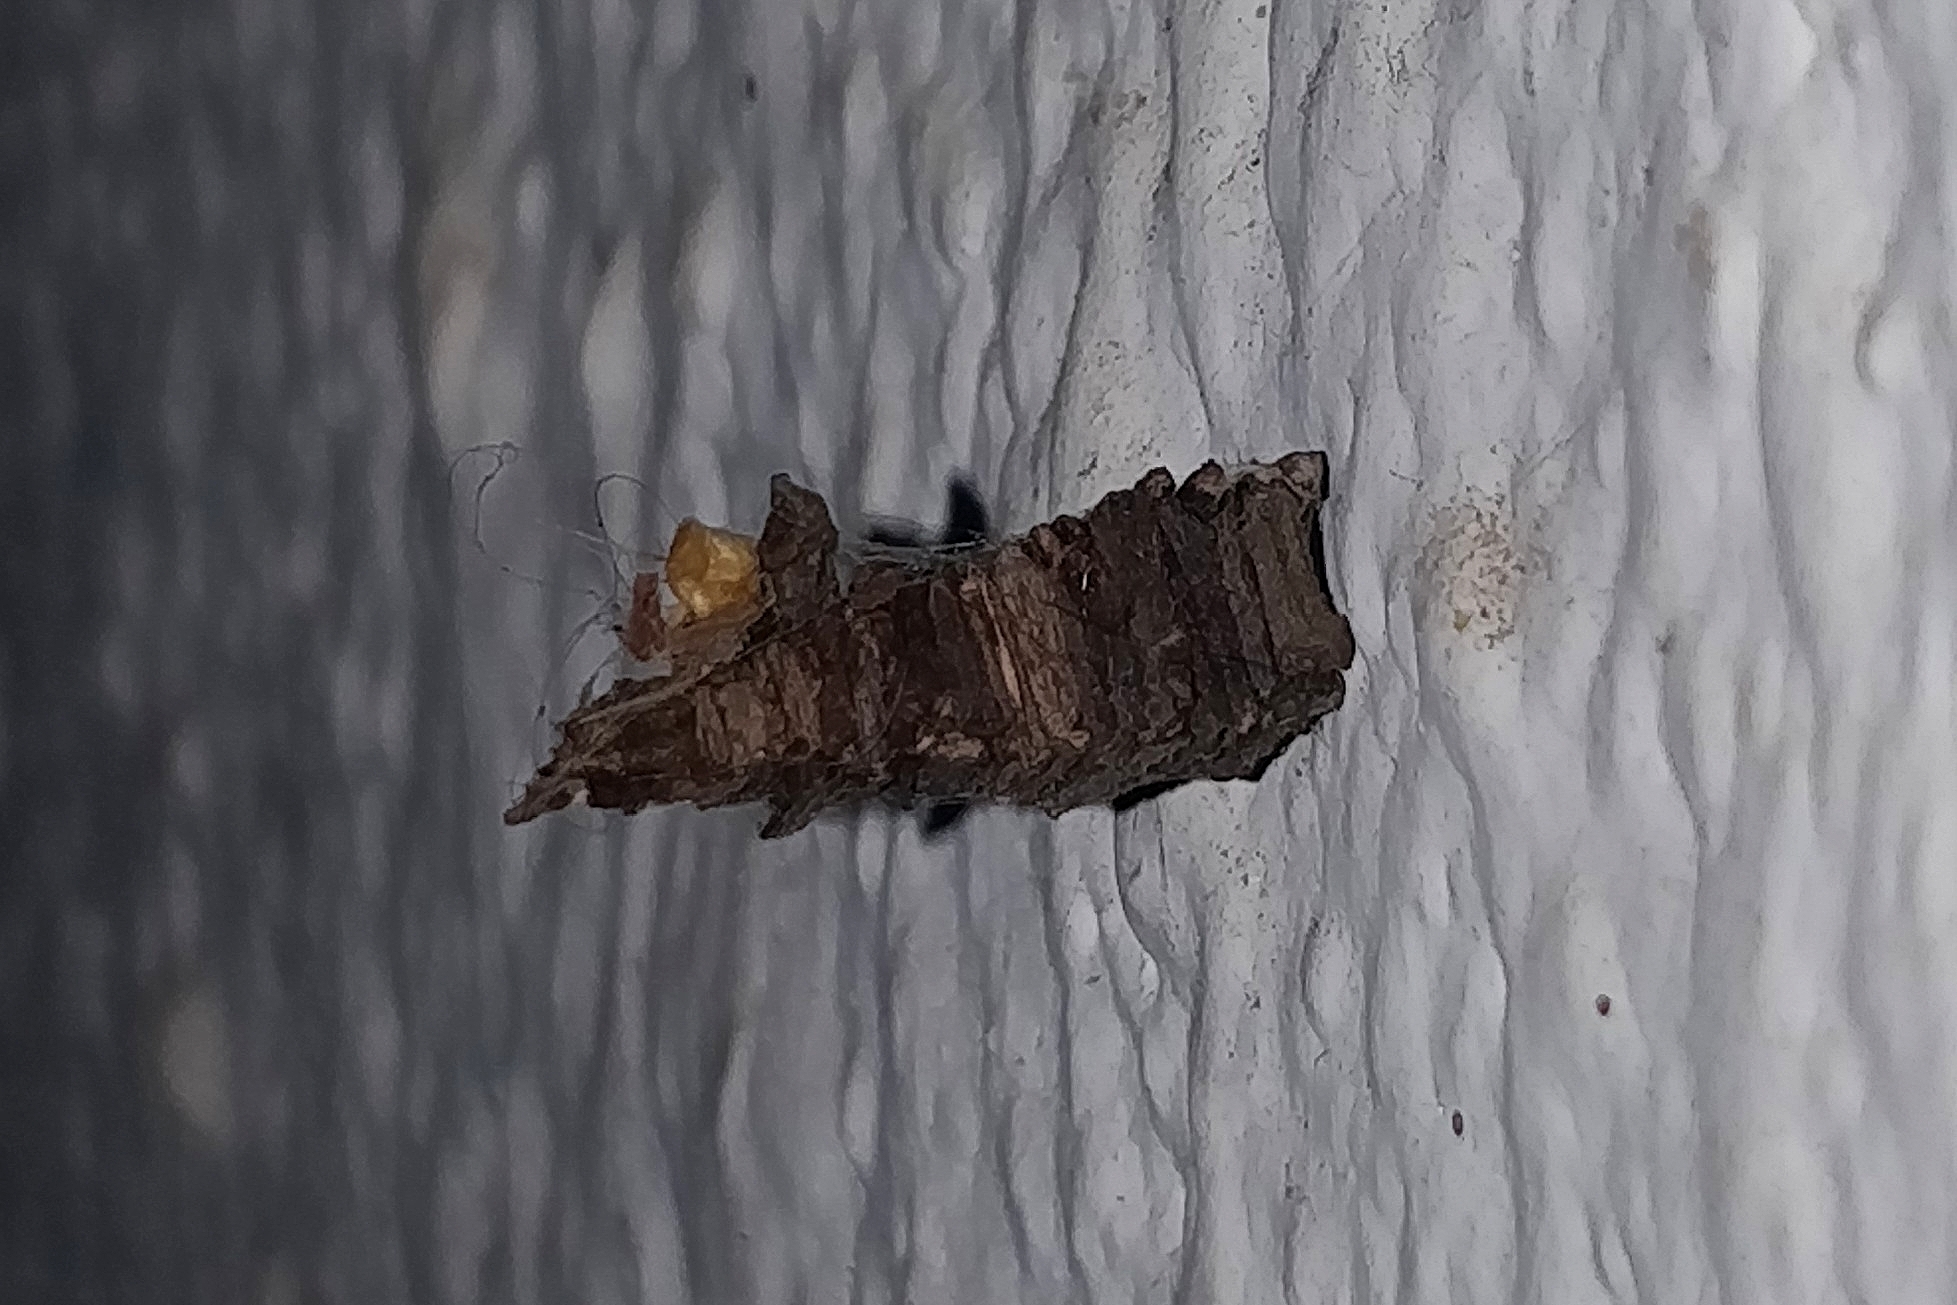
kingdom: Animalia
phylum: Arthropoda
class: Insecta
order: Lepidoptera
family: Psychidae
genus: Amicta
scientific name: Amicta cabrerai
